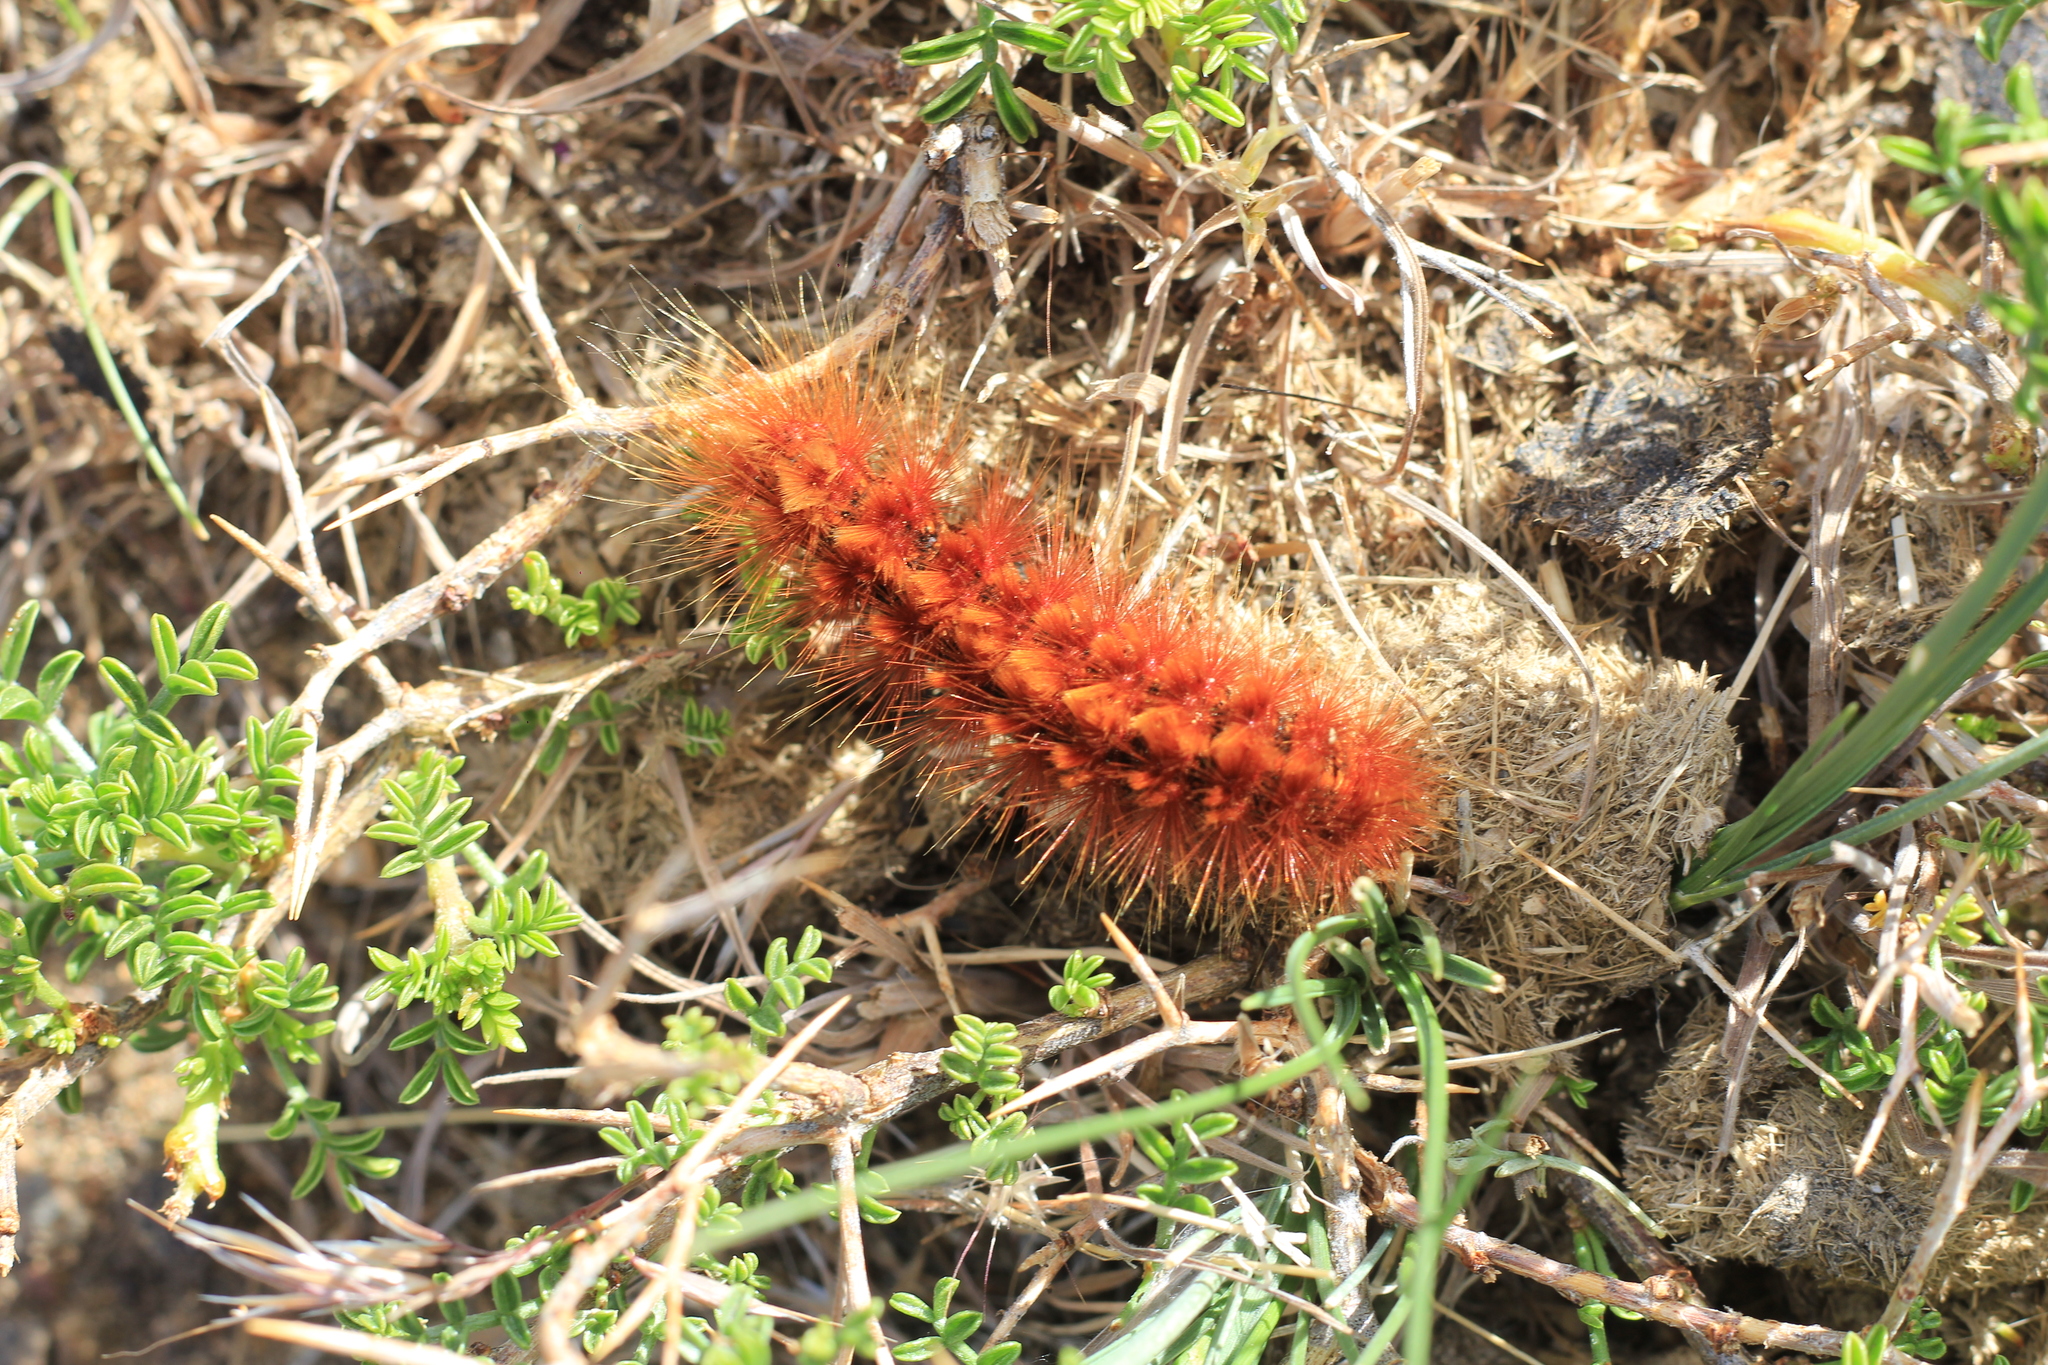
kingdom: Animalia
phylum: Arthropoda
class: Insecta
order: Lepidoptera
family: Erebidae
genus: Paracles
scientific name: Paracles severa
